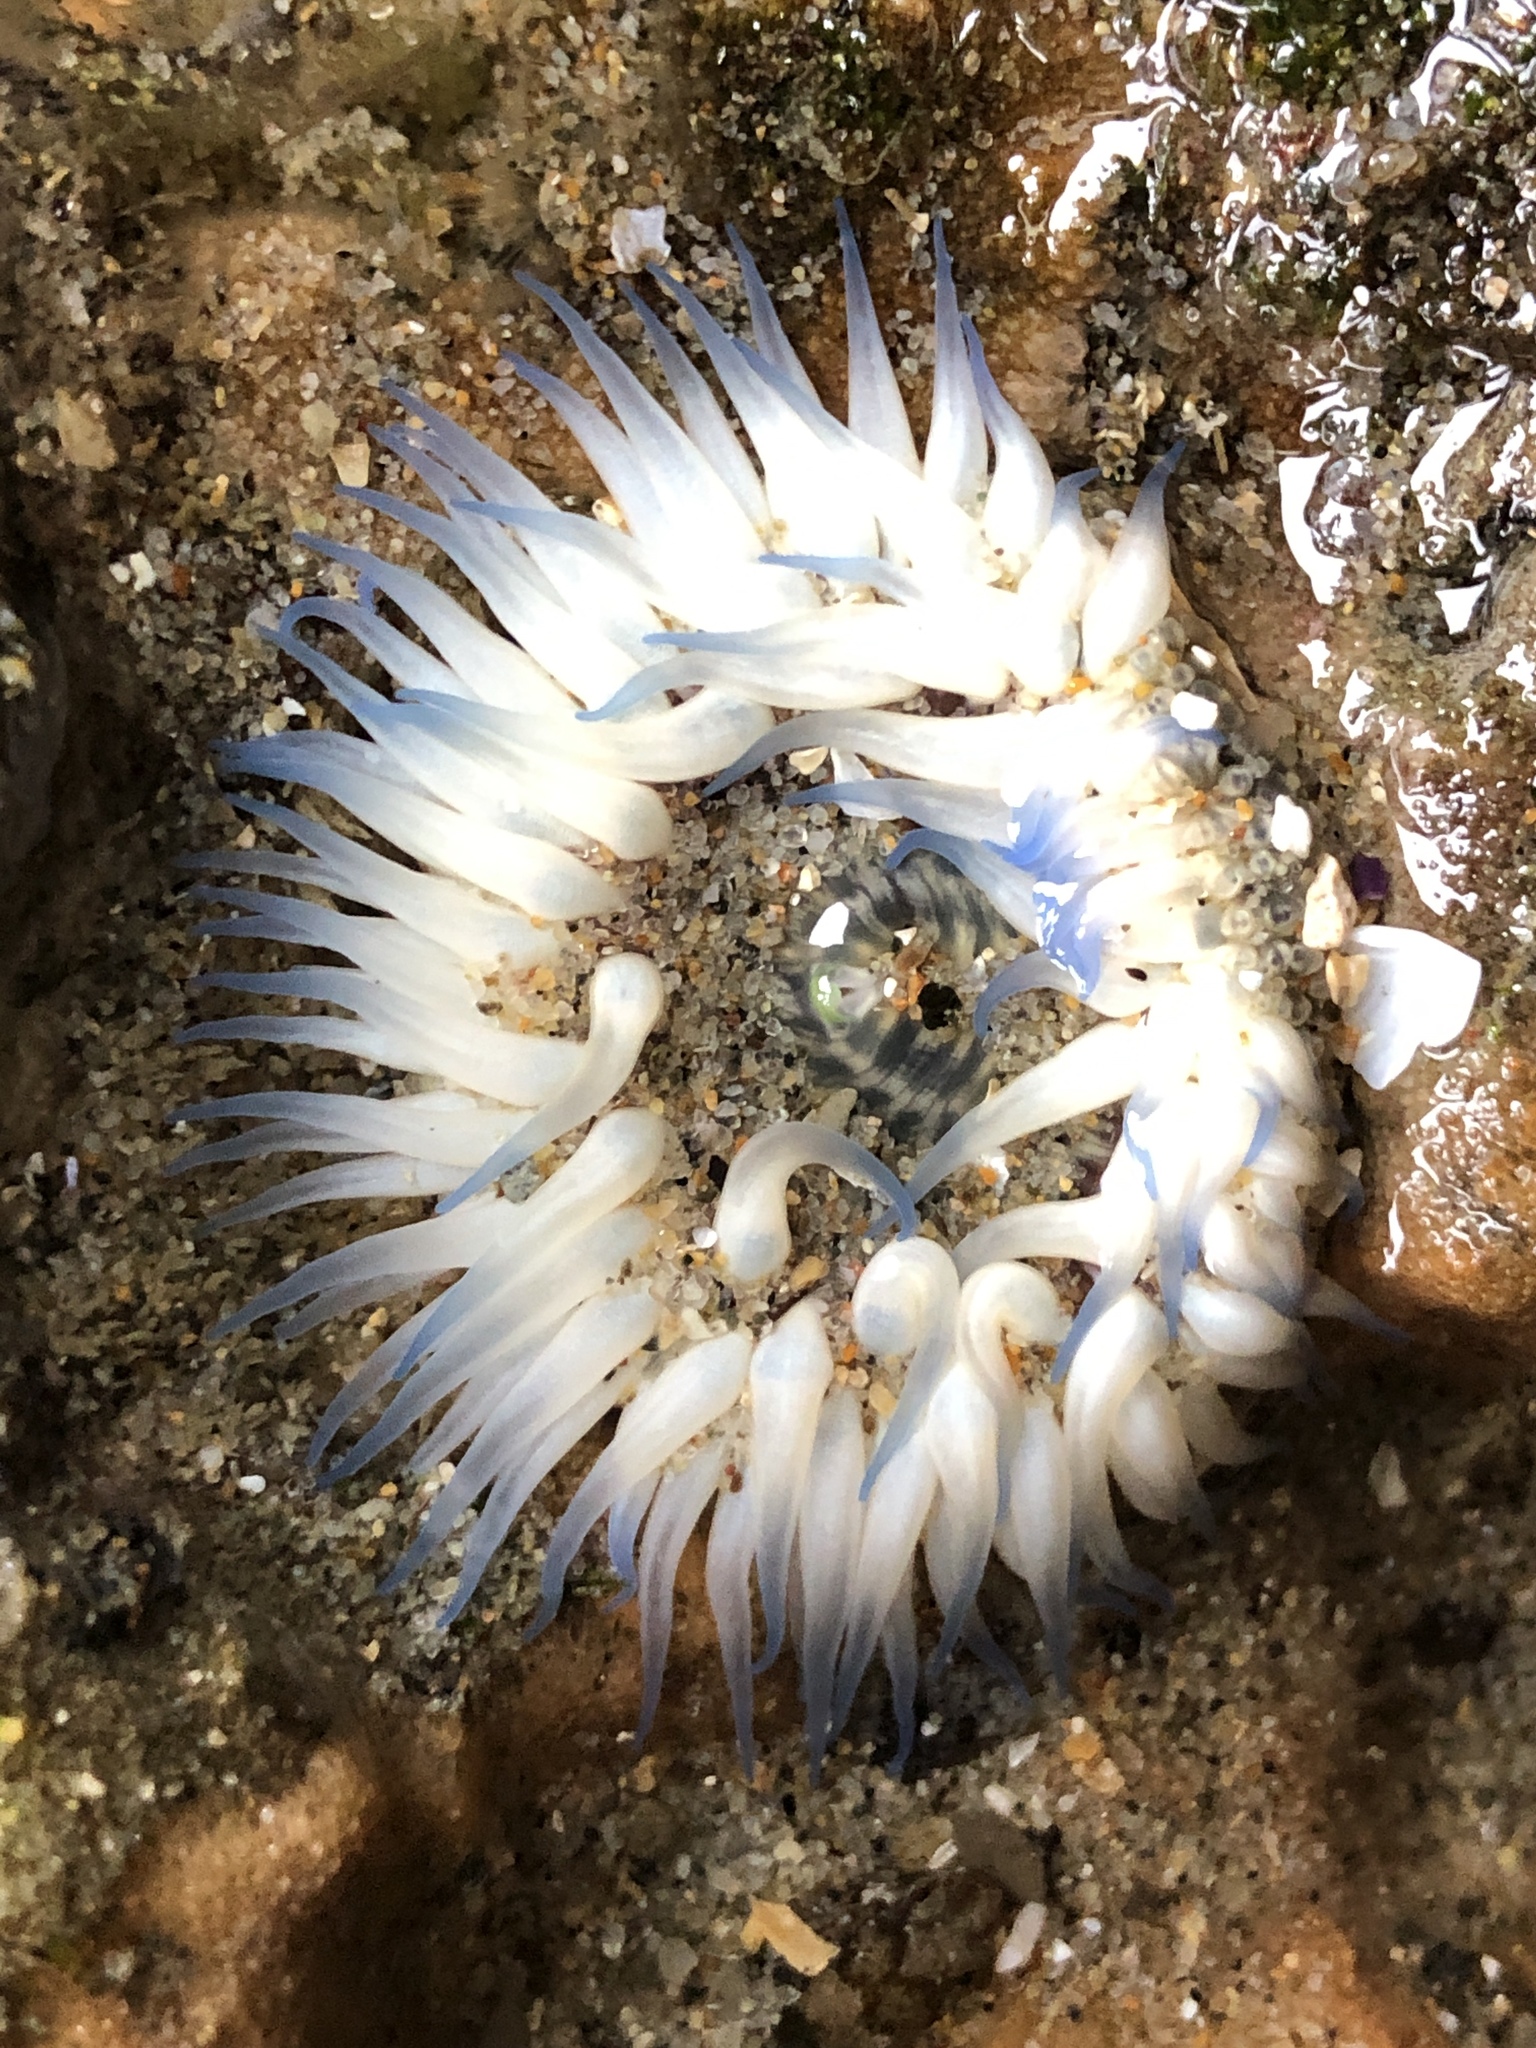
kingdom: Animalia
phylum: Cnidaria
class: Anthozoa
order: Actiniaria
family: Actiniidae
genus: Anthopleura
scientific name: Anthopleura artemisia
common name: Buried sea anemone
